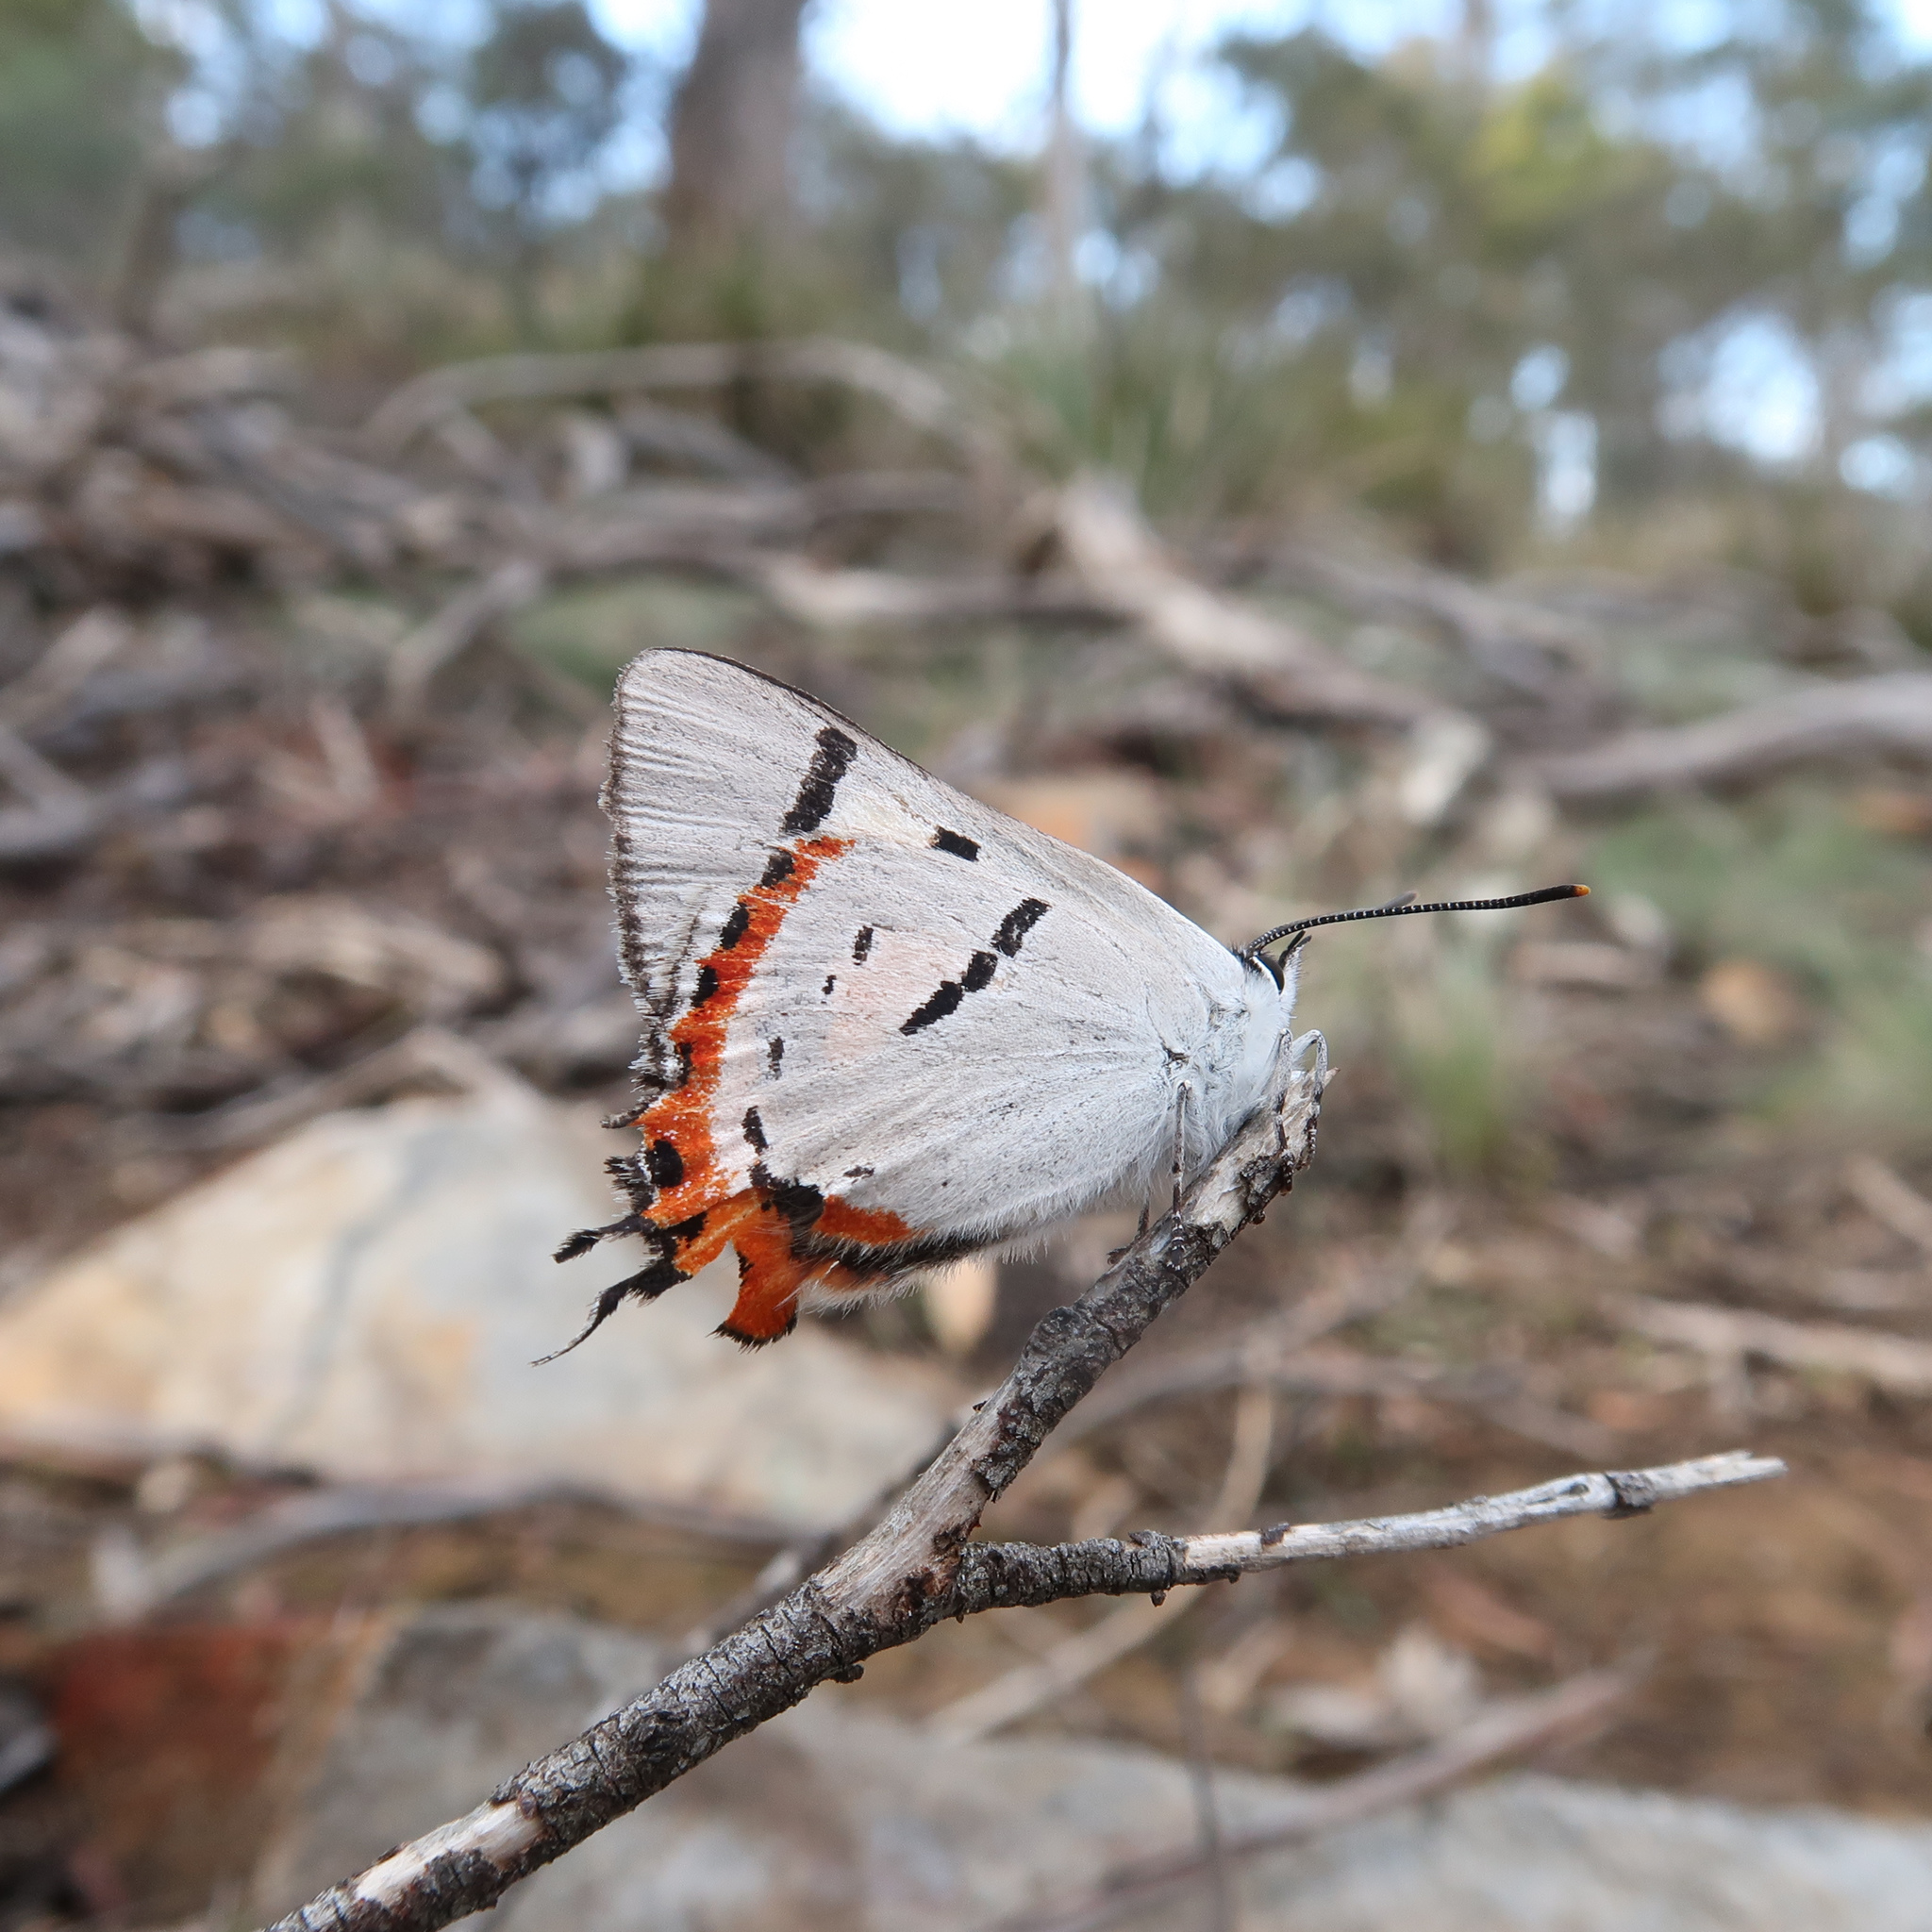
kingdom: Animalia
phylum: Arthropoda
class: Insecta
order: Lepidoptera
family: Lycaenidae
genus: Pseudalmenus
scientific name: Pseudalmenus chlorinda
